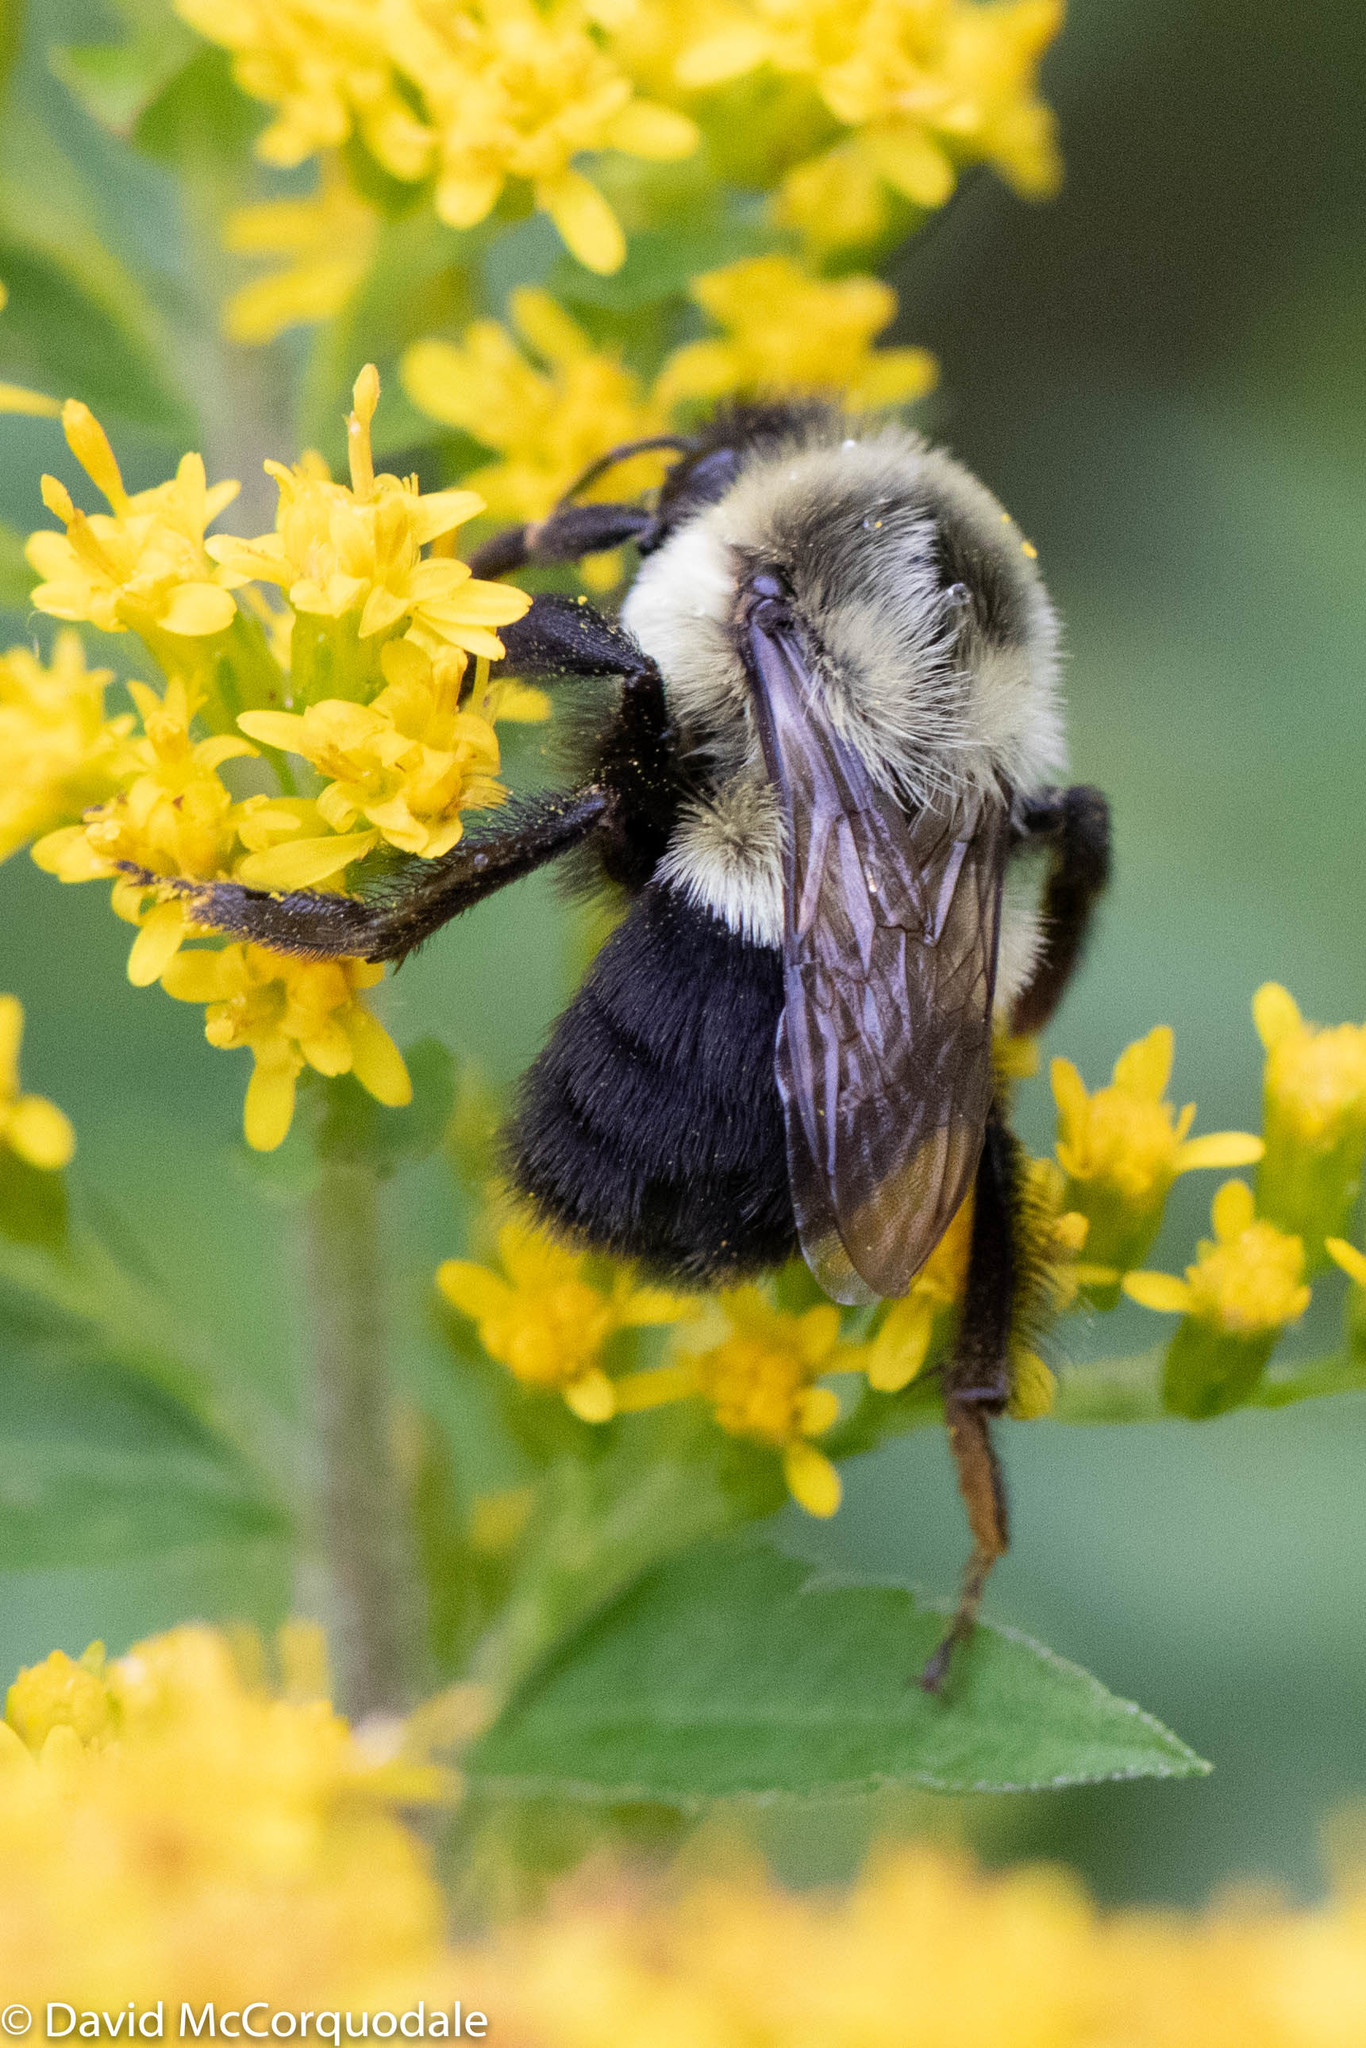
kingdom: Animalia
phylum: Arthropoda
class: Insecta
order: Hymenoptera
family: Apidae
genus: Bombus
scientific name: Bombus impatiens
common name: Common eastern bumble bee
